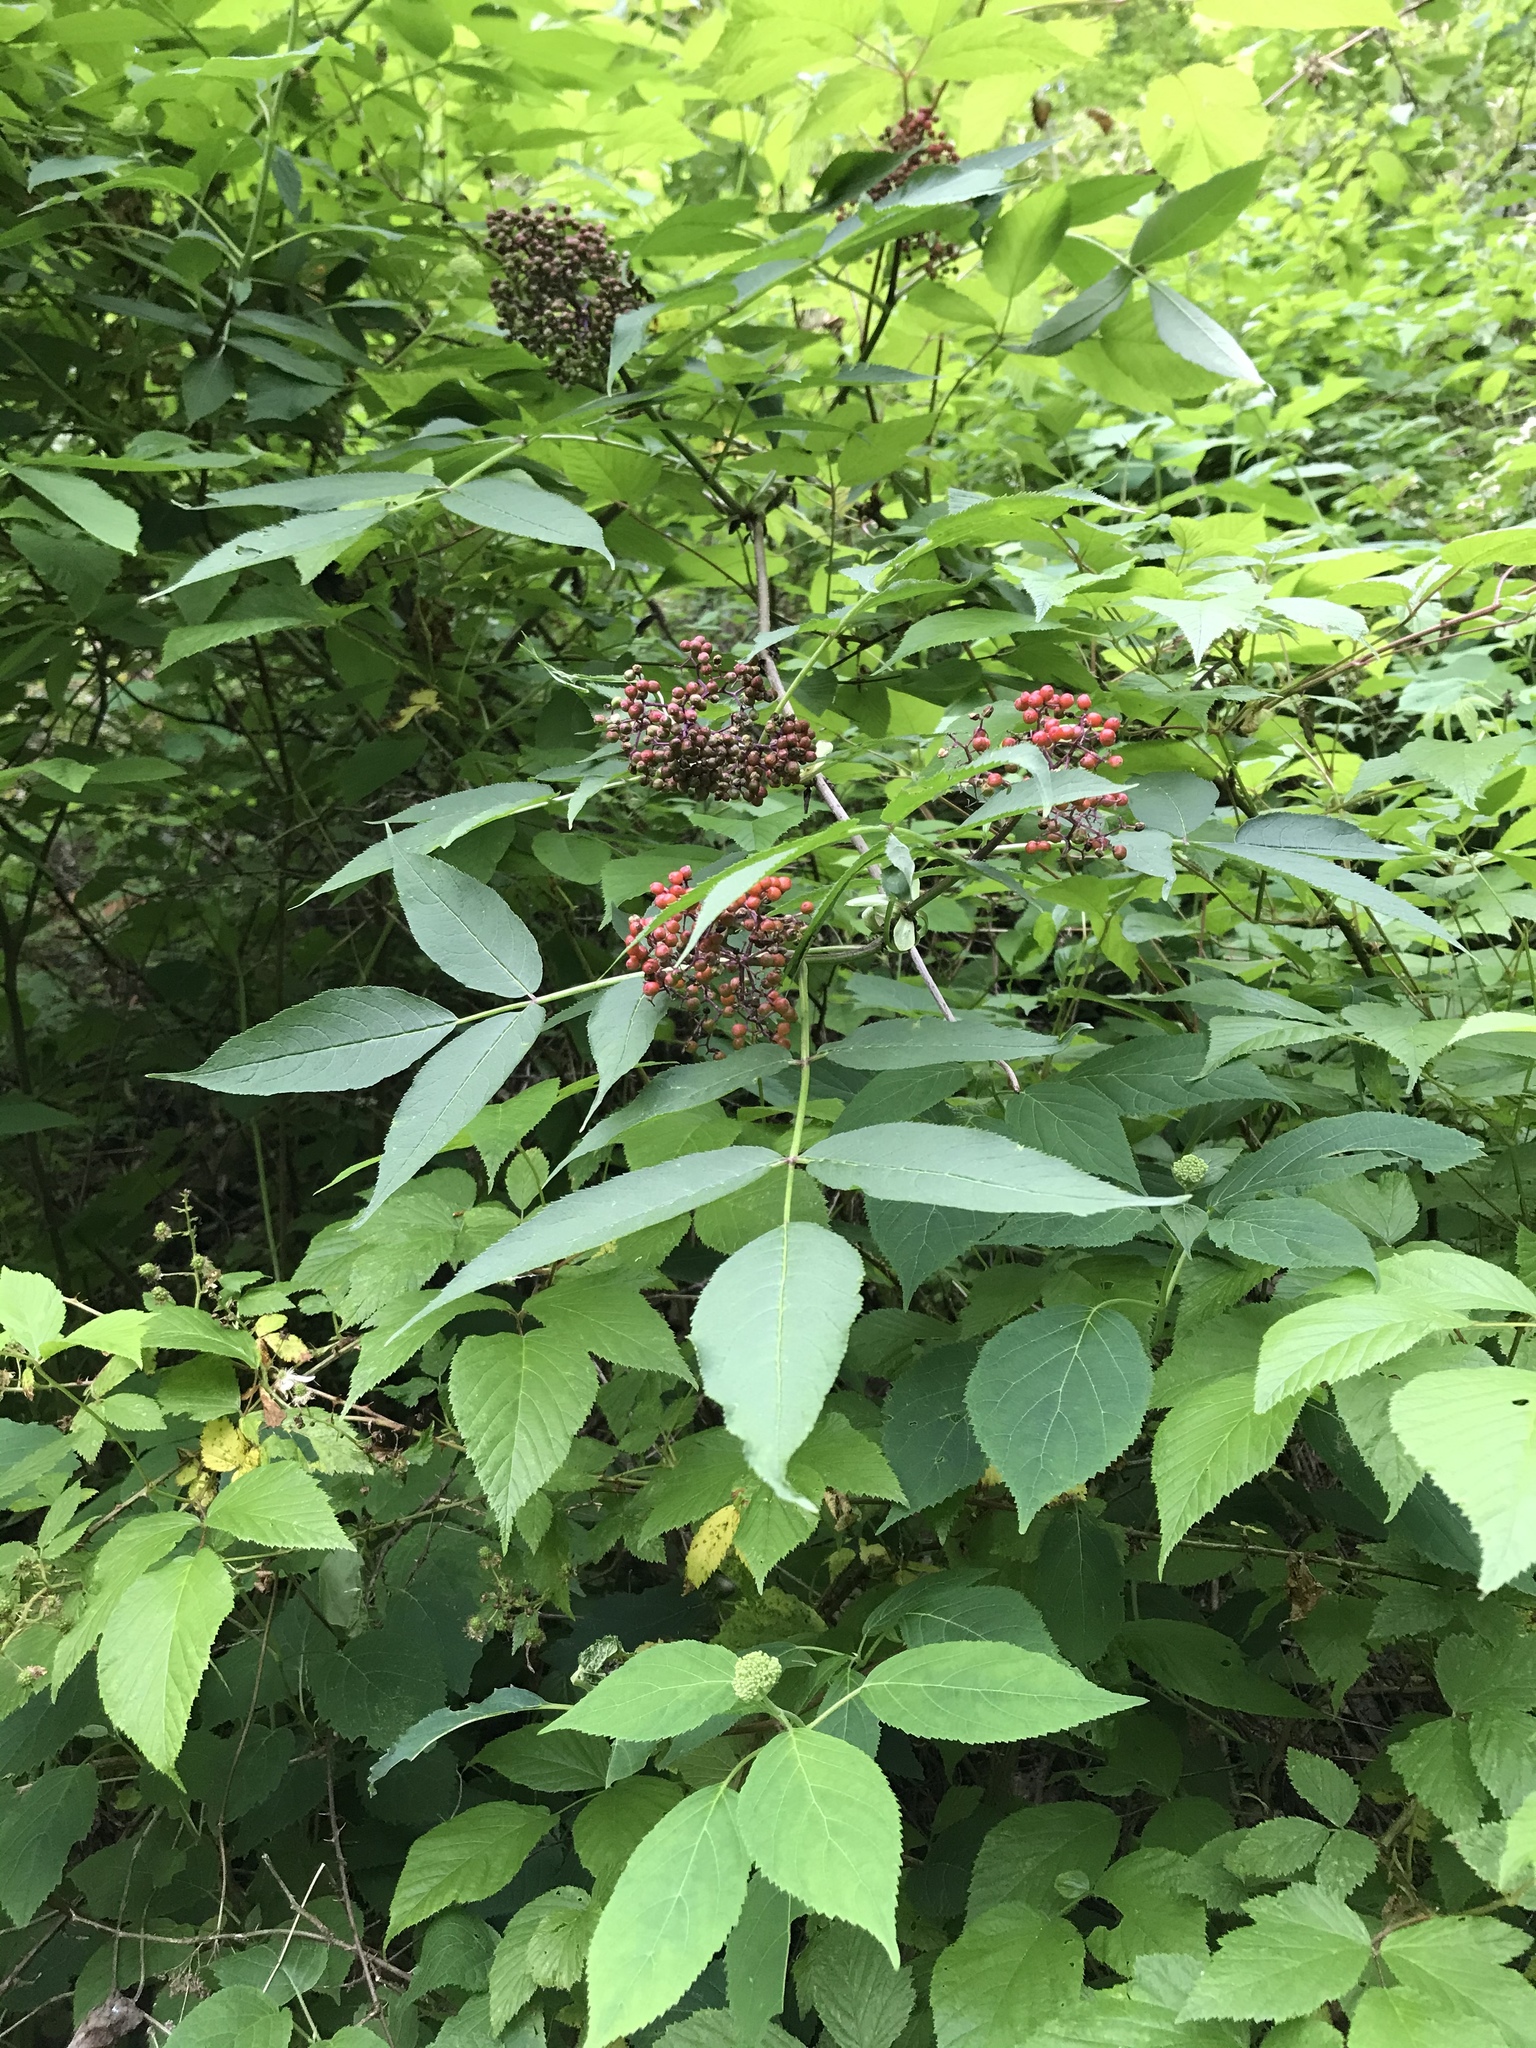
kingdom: Plantae
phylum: Tracheophyta
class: Magnoliopsida
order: Dipsacales
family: Viburnaceae
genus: Sambucus
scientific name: Sambucus racemosa
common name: Red-berried elder
